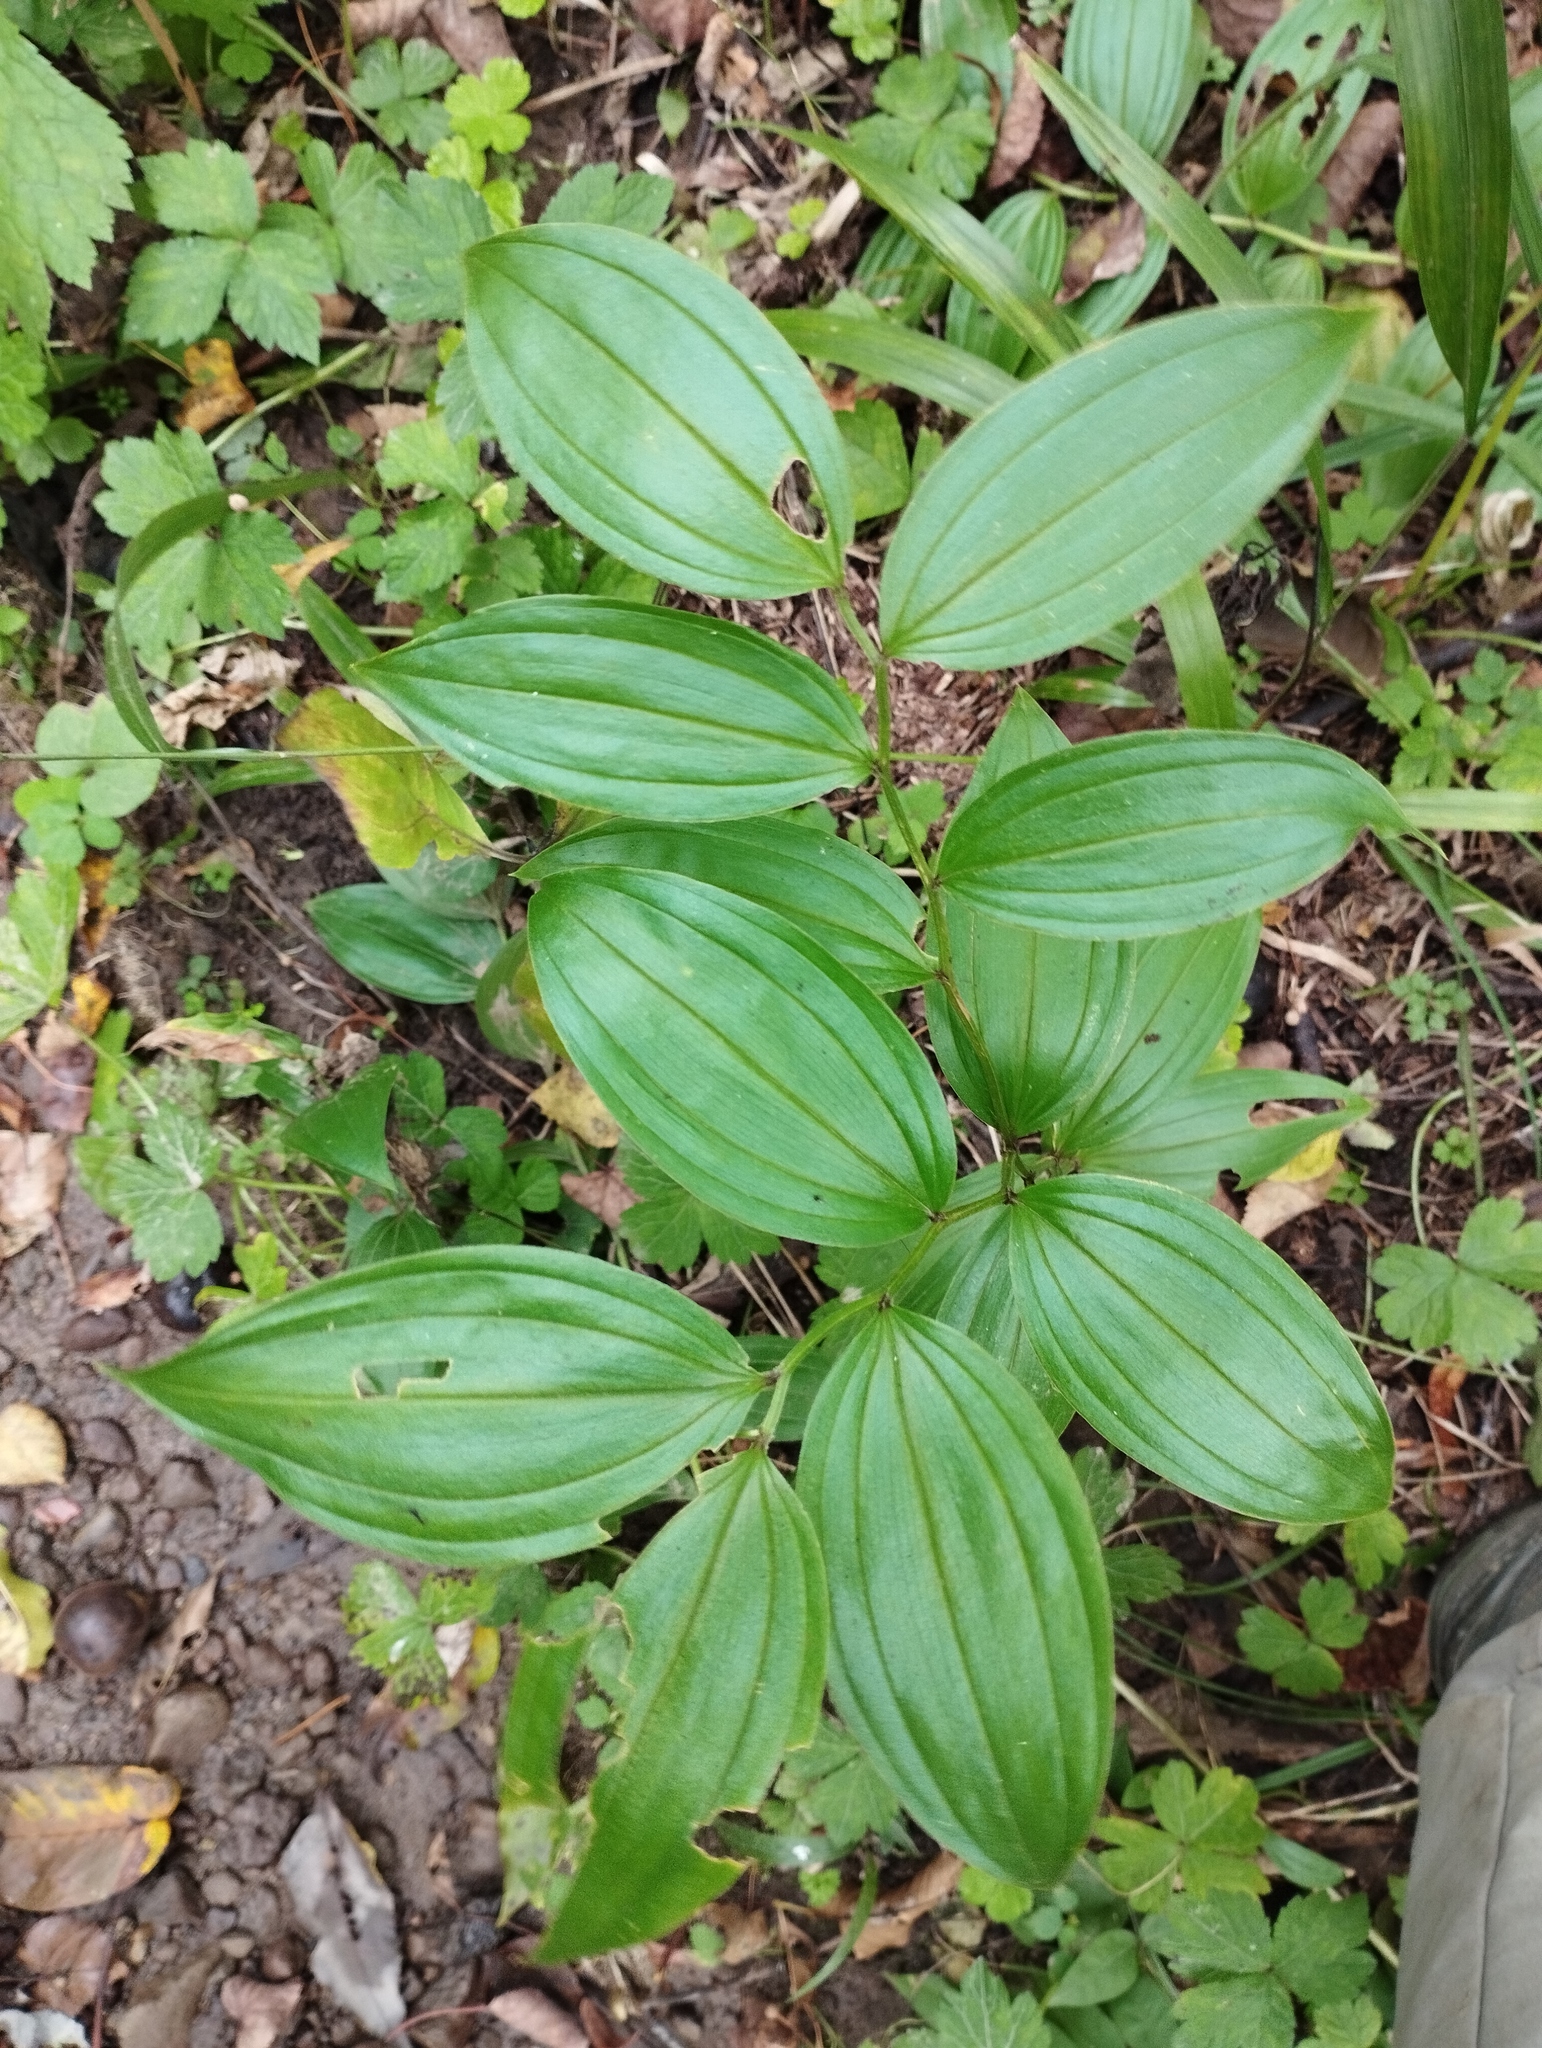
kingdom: Plantae
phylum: Tracheophyta
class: Liliopsida
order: Liliales
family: Colchicaceae
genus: Disporum
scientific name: Disporum viridescens
